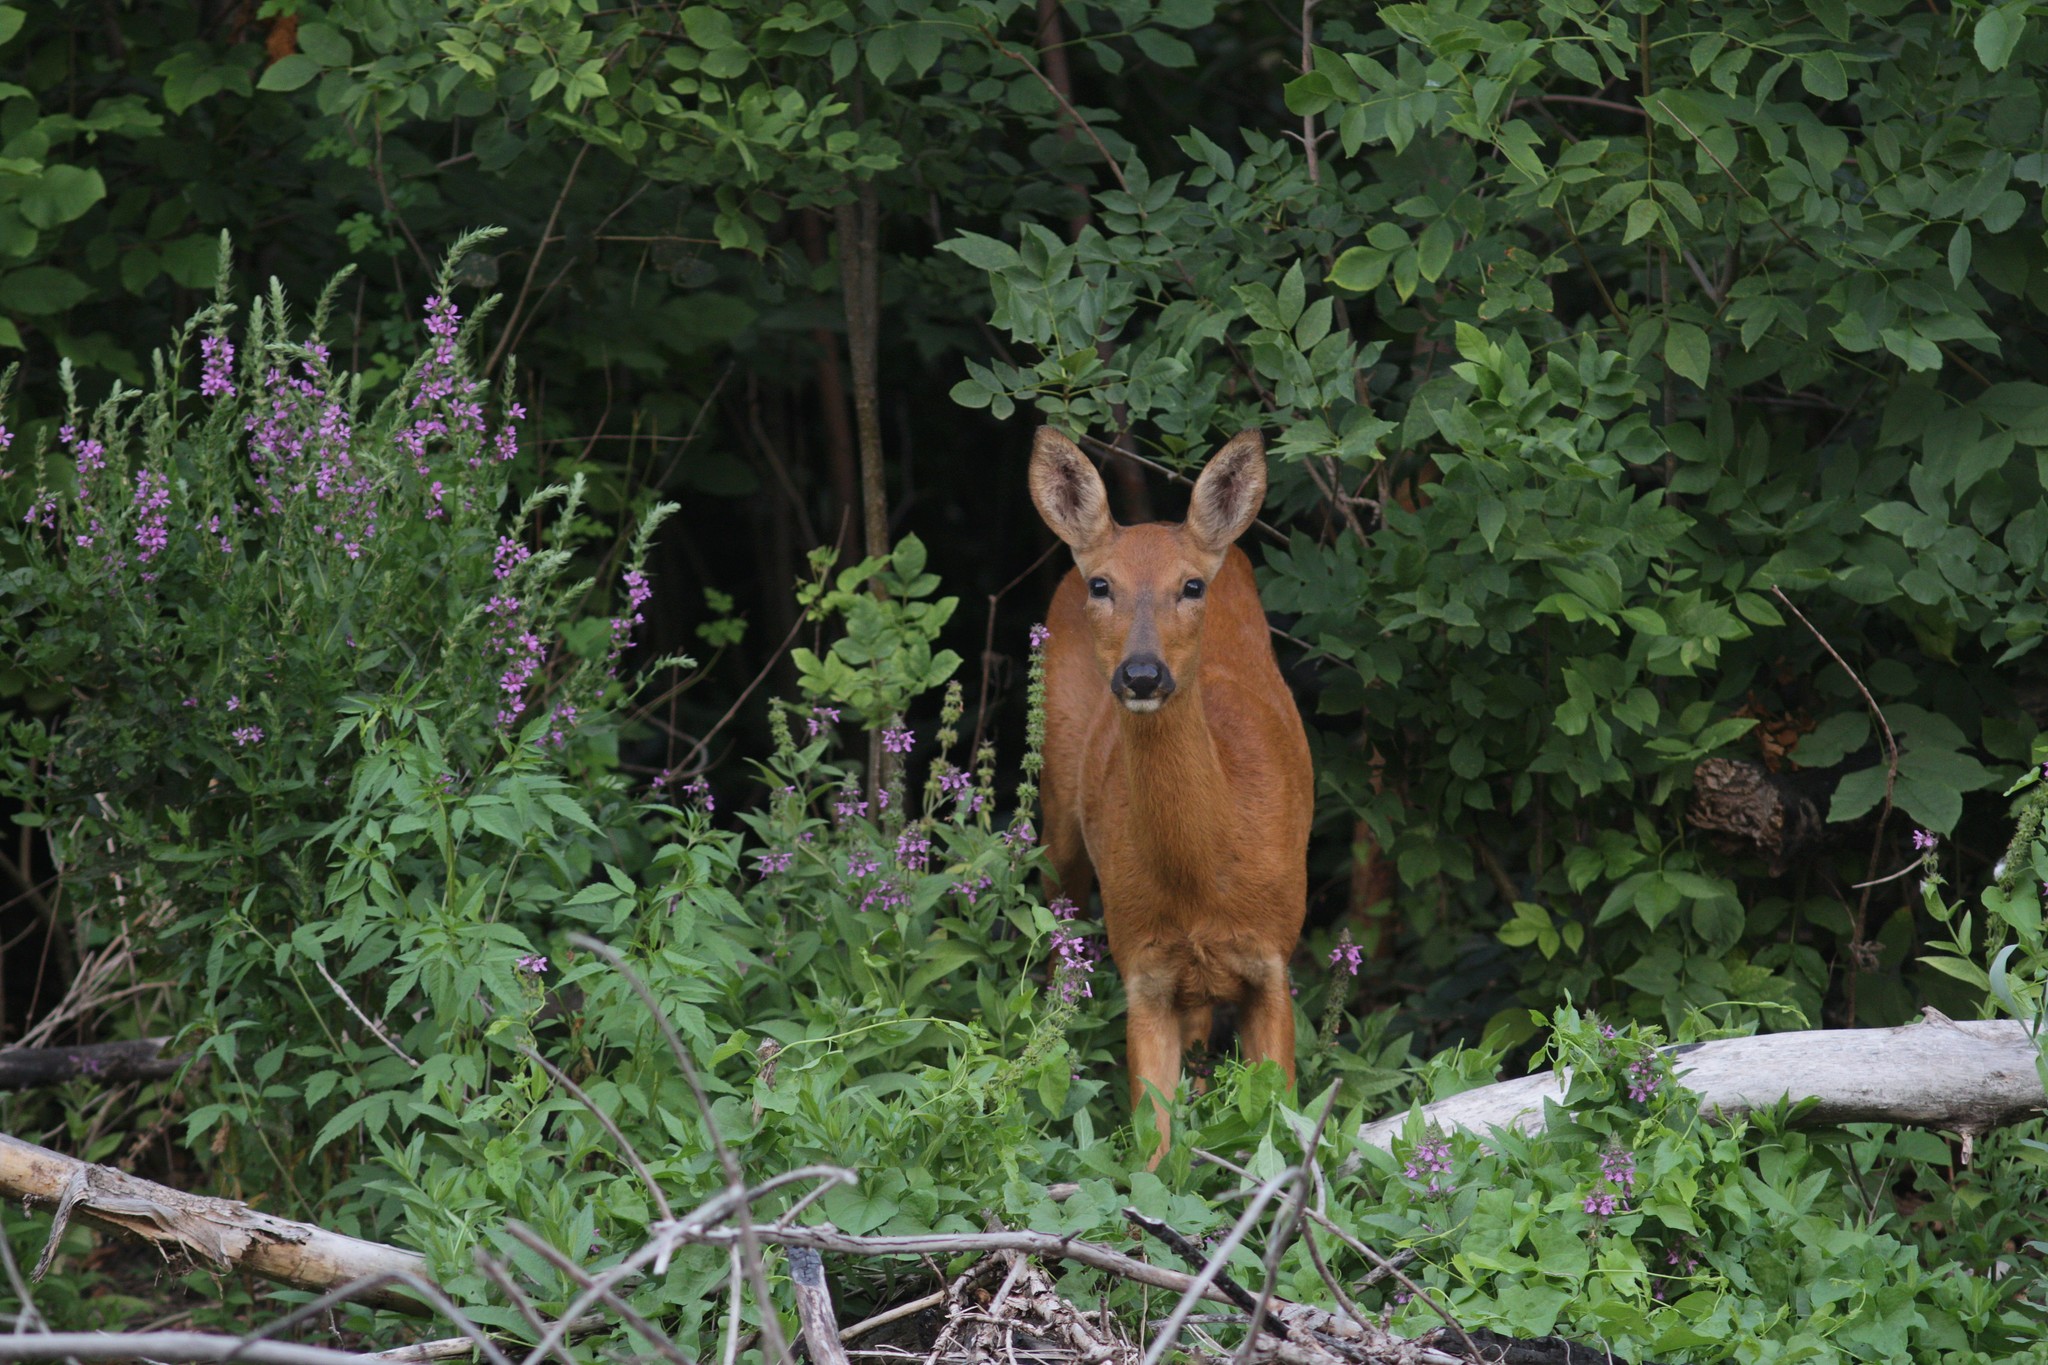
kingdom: Animalia
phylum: Chordata
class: Mammalia
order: Artiodactyla
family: Cervidae
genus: Capreolus
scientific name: Capreolus pygargus
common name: Siberian roe
